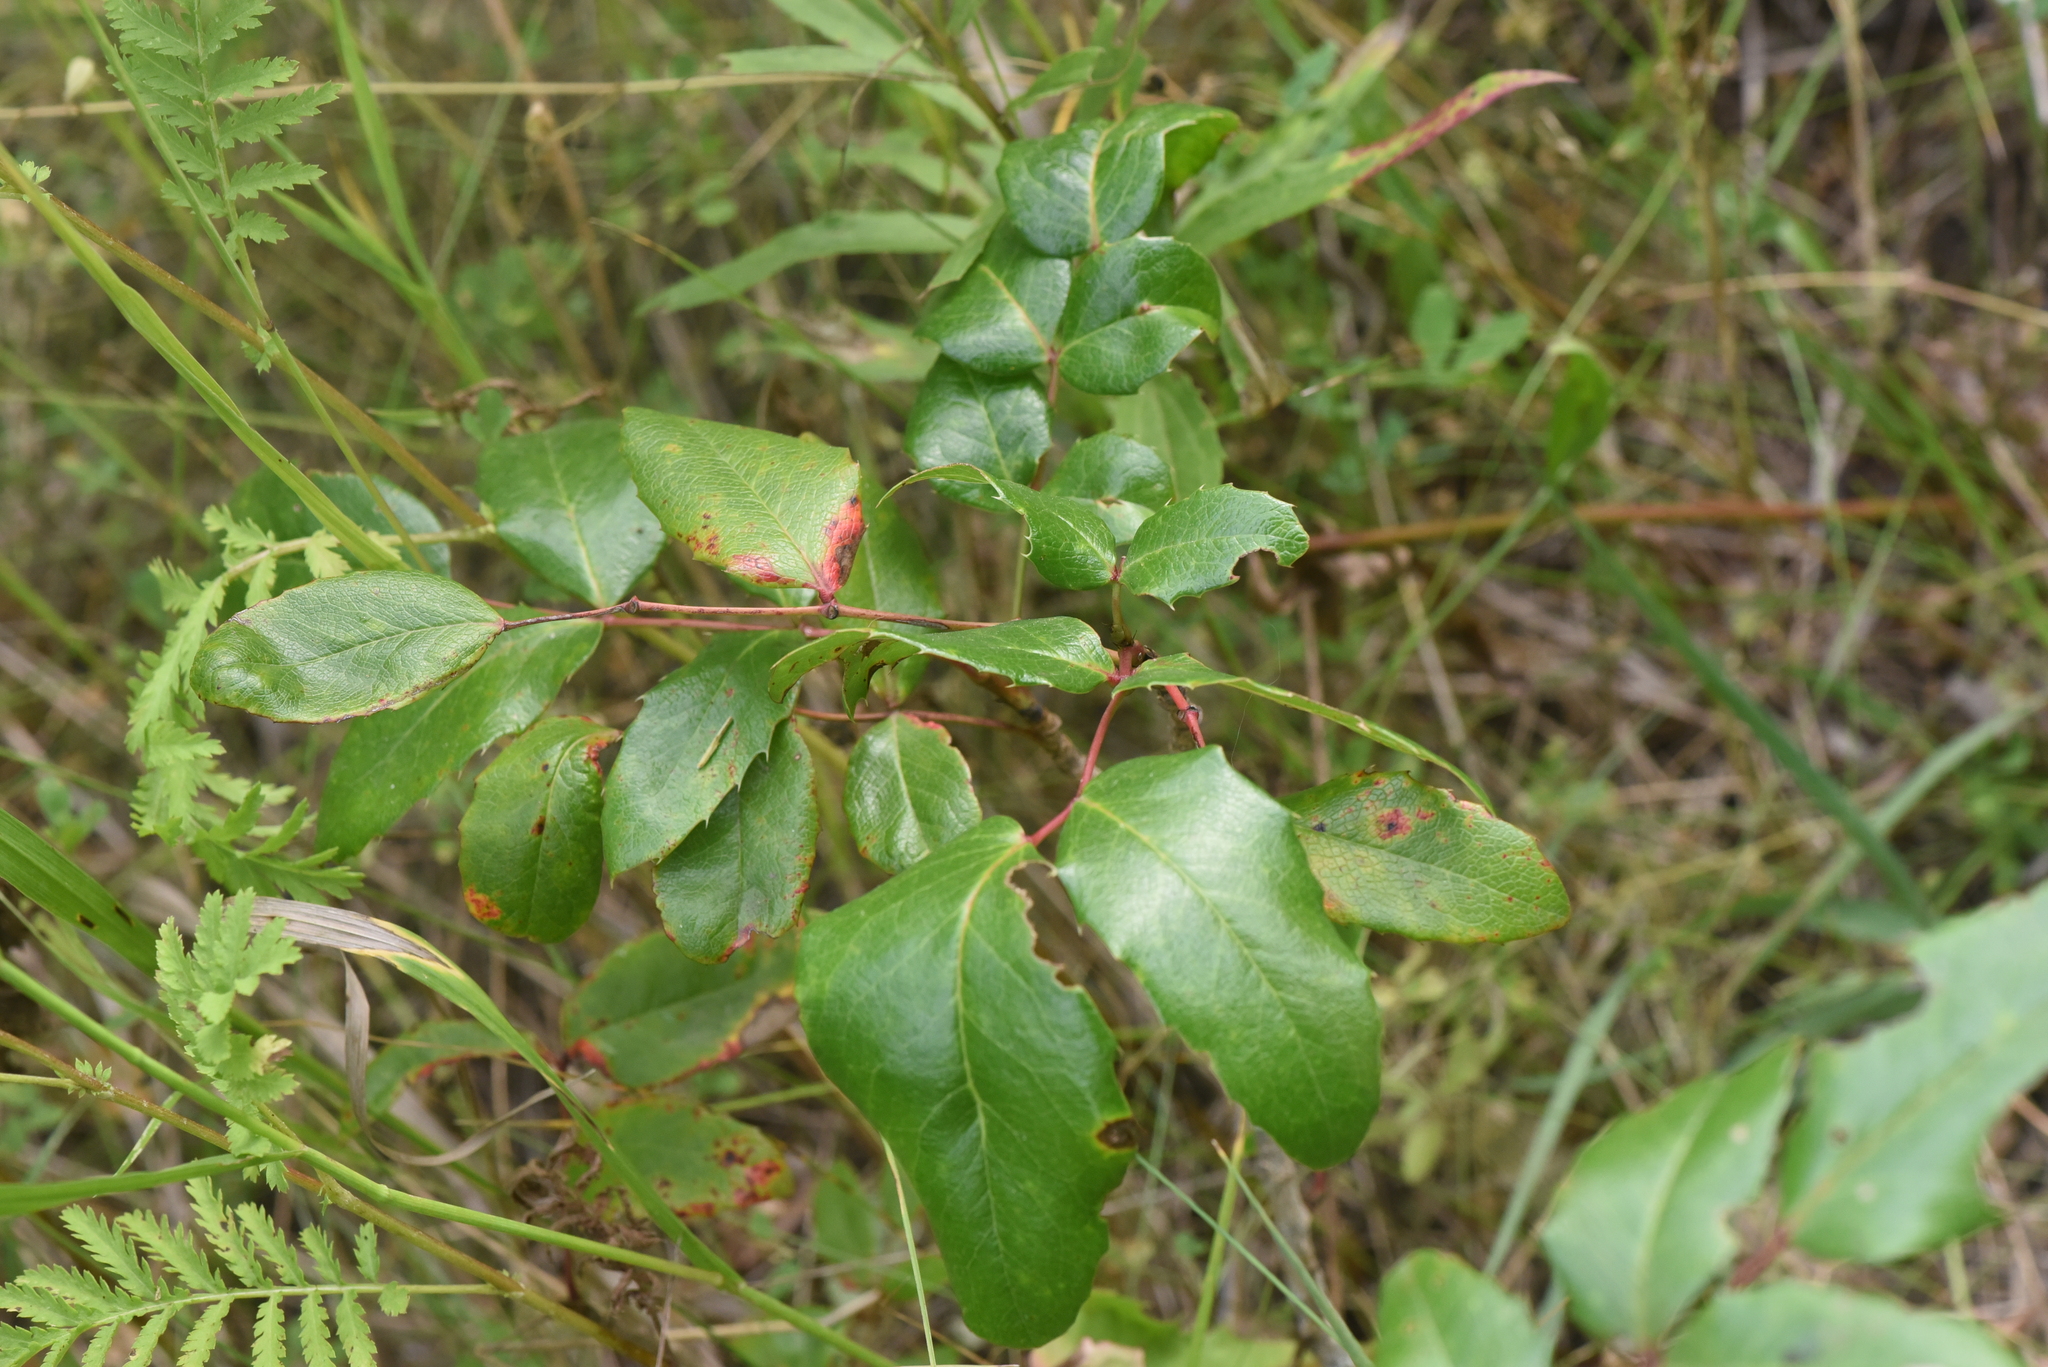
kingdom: Plantae
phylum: Tracheophyta
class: Magnoliopsida
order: Ranunculales
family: Berberidaceae
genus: Mahonia
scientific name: Mahonia aquifolium
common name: Oregon-grape
